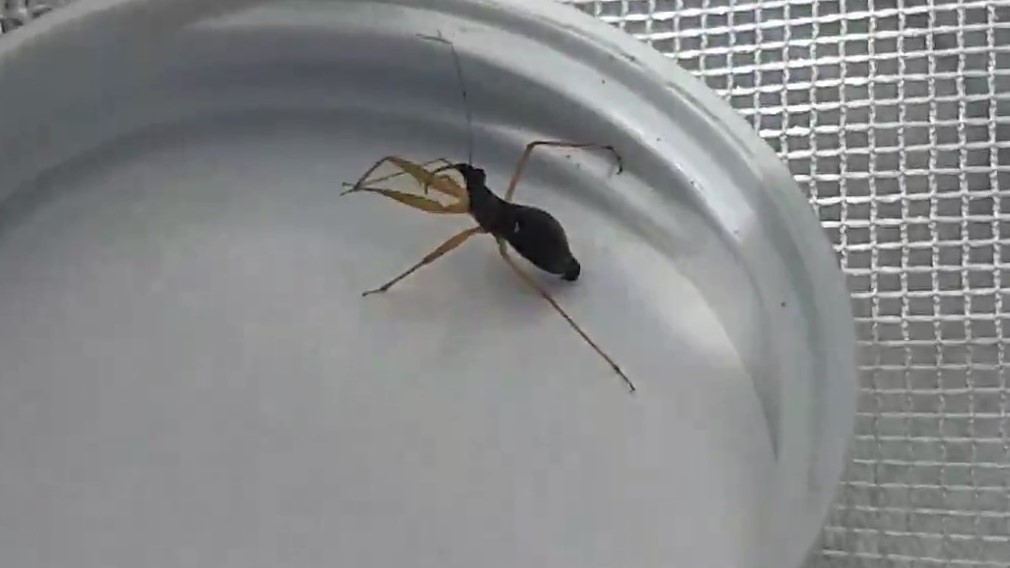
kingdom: Animalia
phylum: Arthropoda
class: Insecta
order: Hemiptera
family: Nabidae
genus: Nabis
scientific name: Nabis
